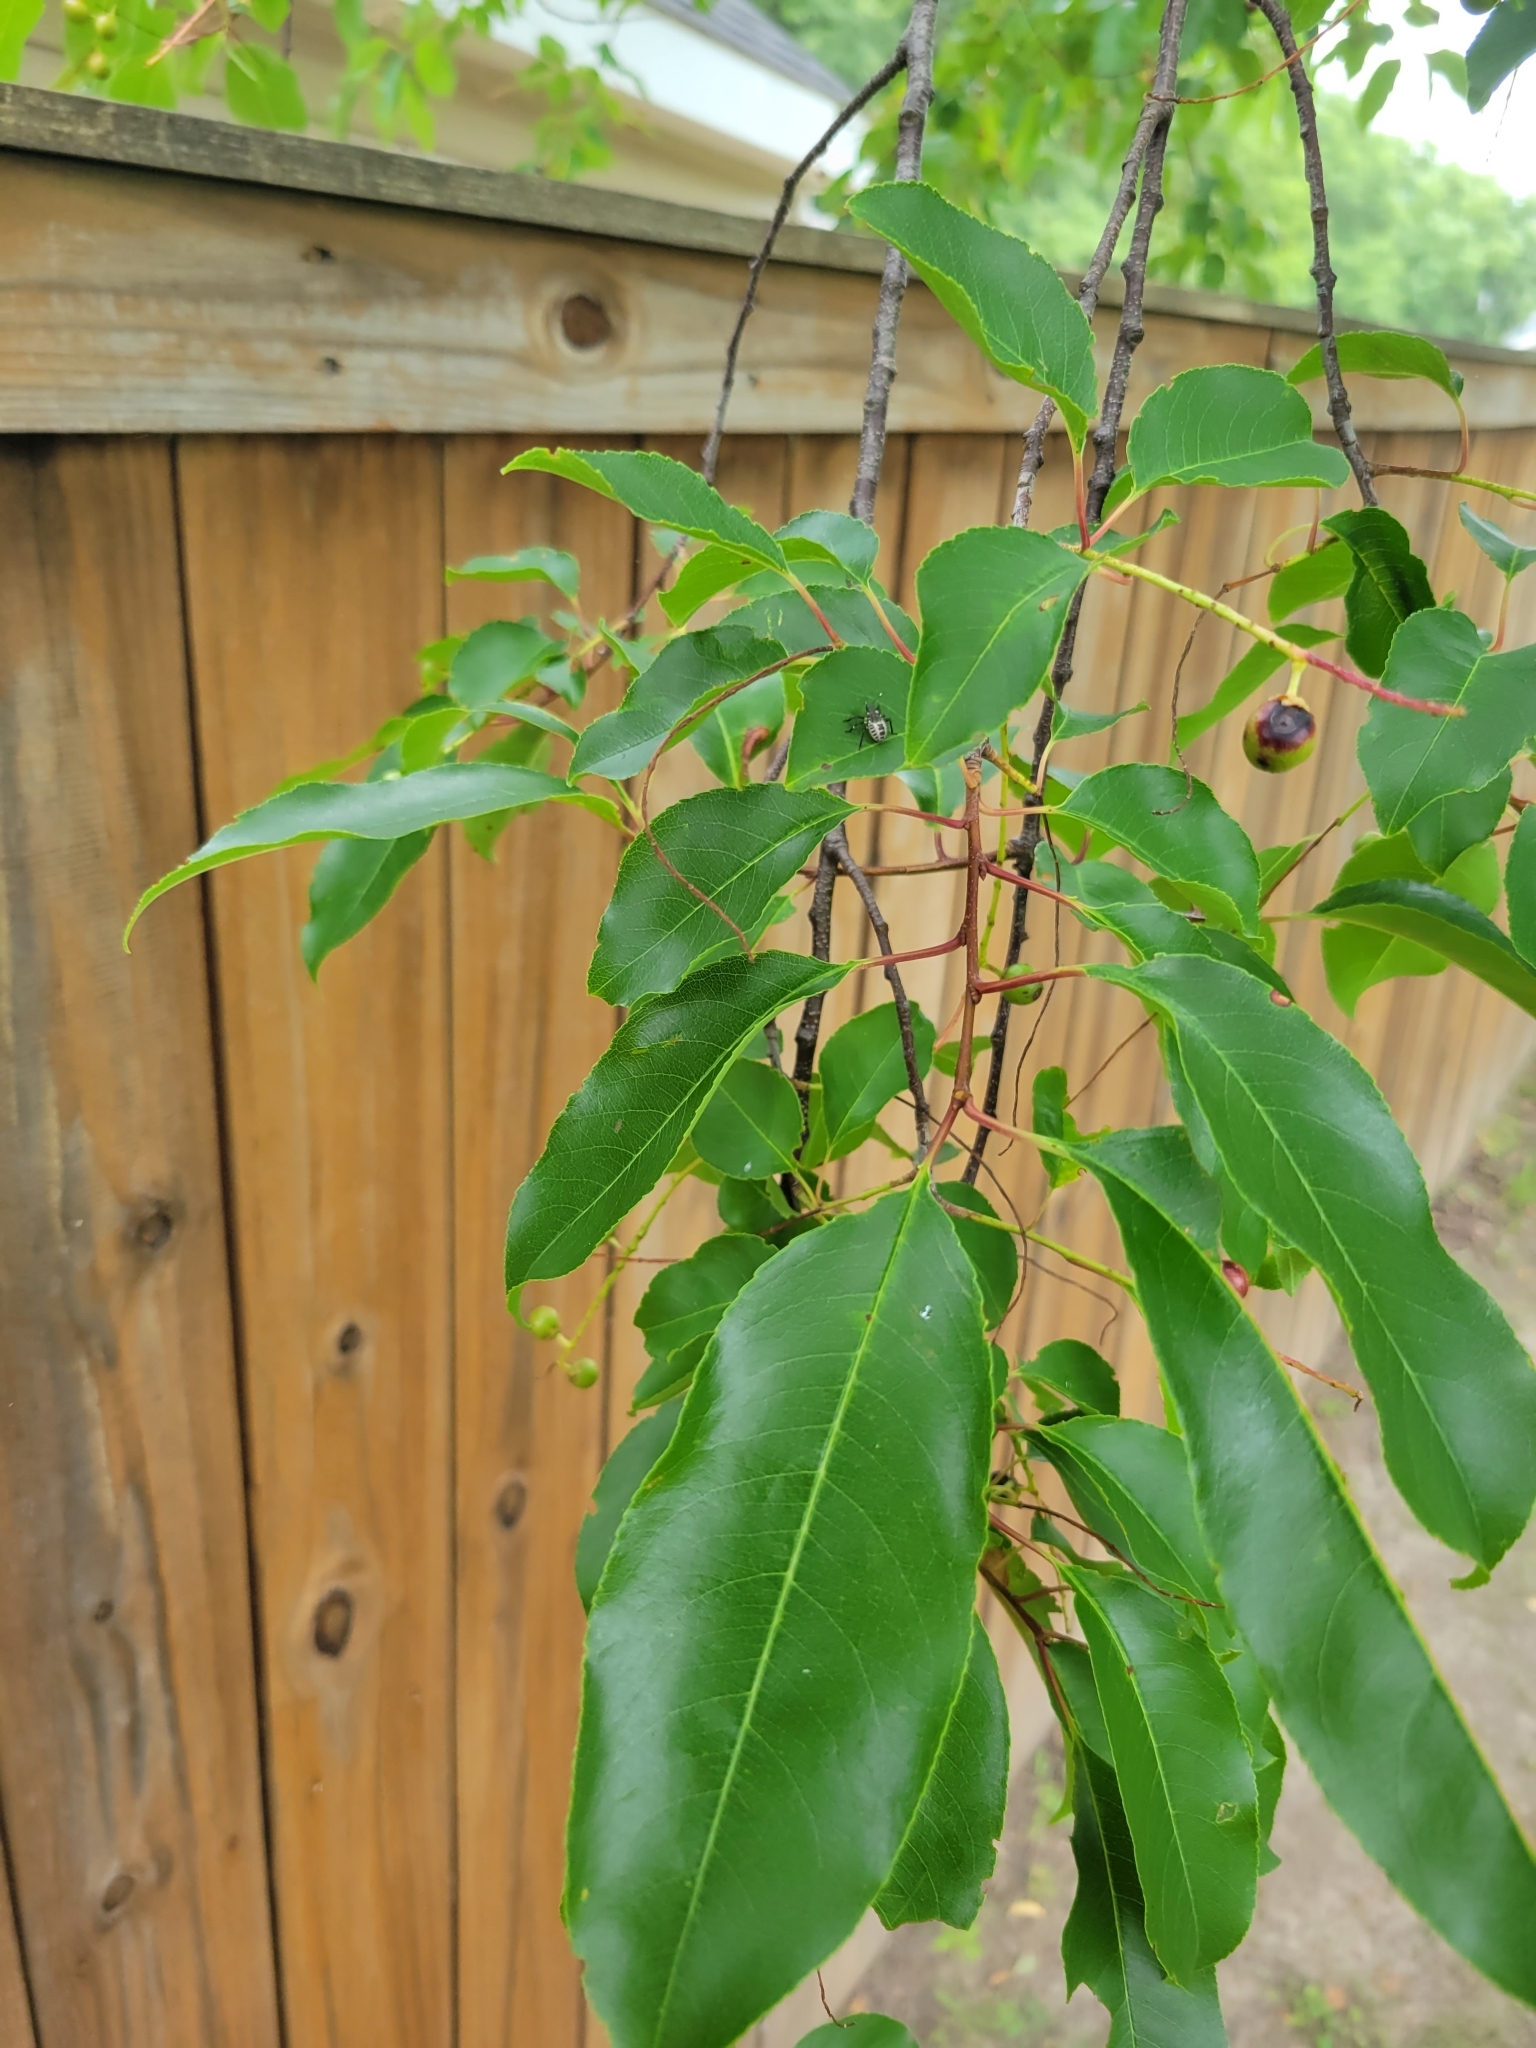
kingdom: Animalia
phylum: Arthropoda
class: Insecta
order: Hemiptera
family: Pentatomidae
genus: Halyomorpha
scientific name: Halyomorpha halys
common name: Brown marmorated stink bug
